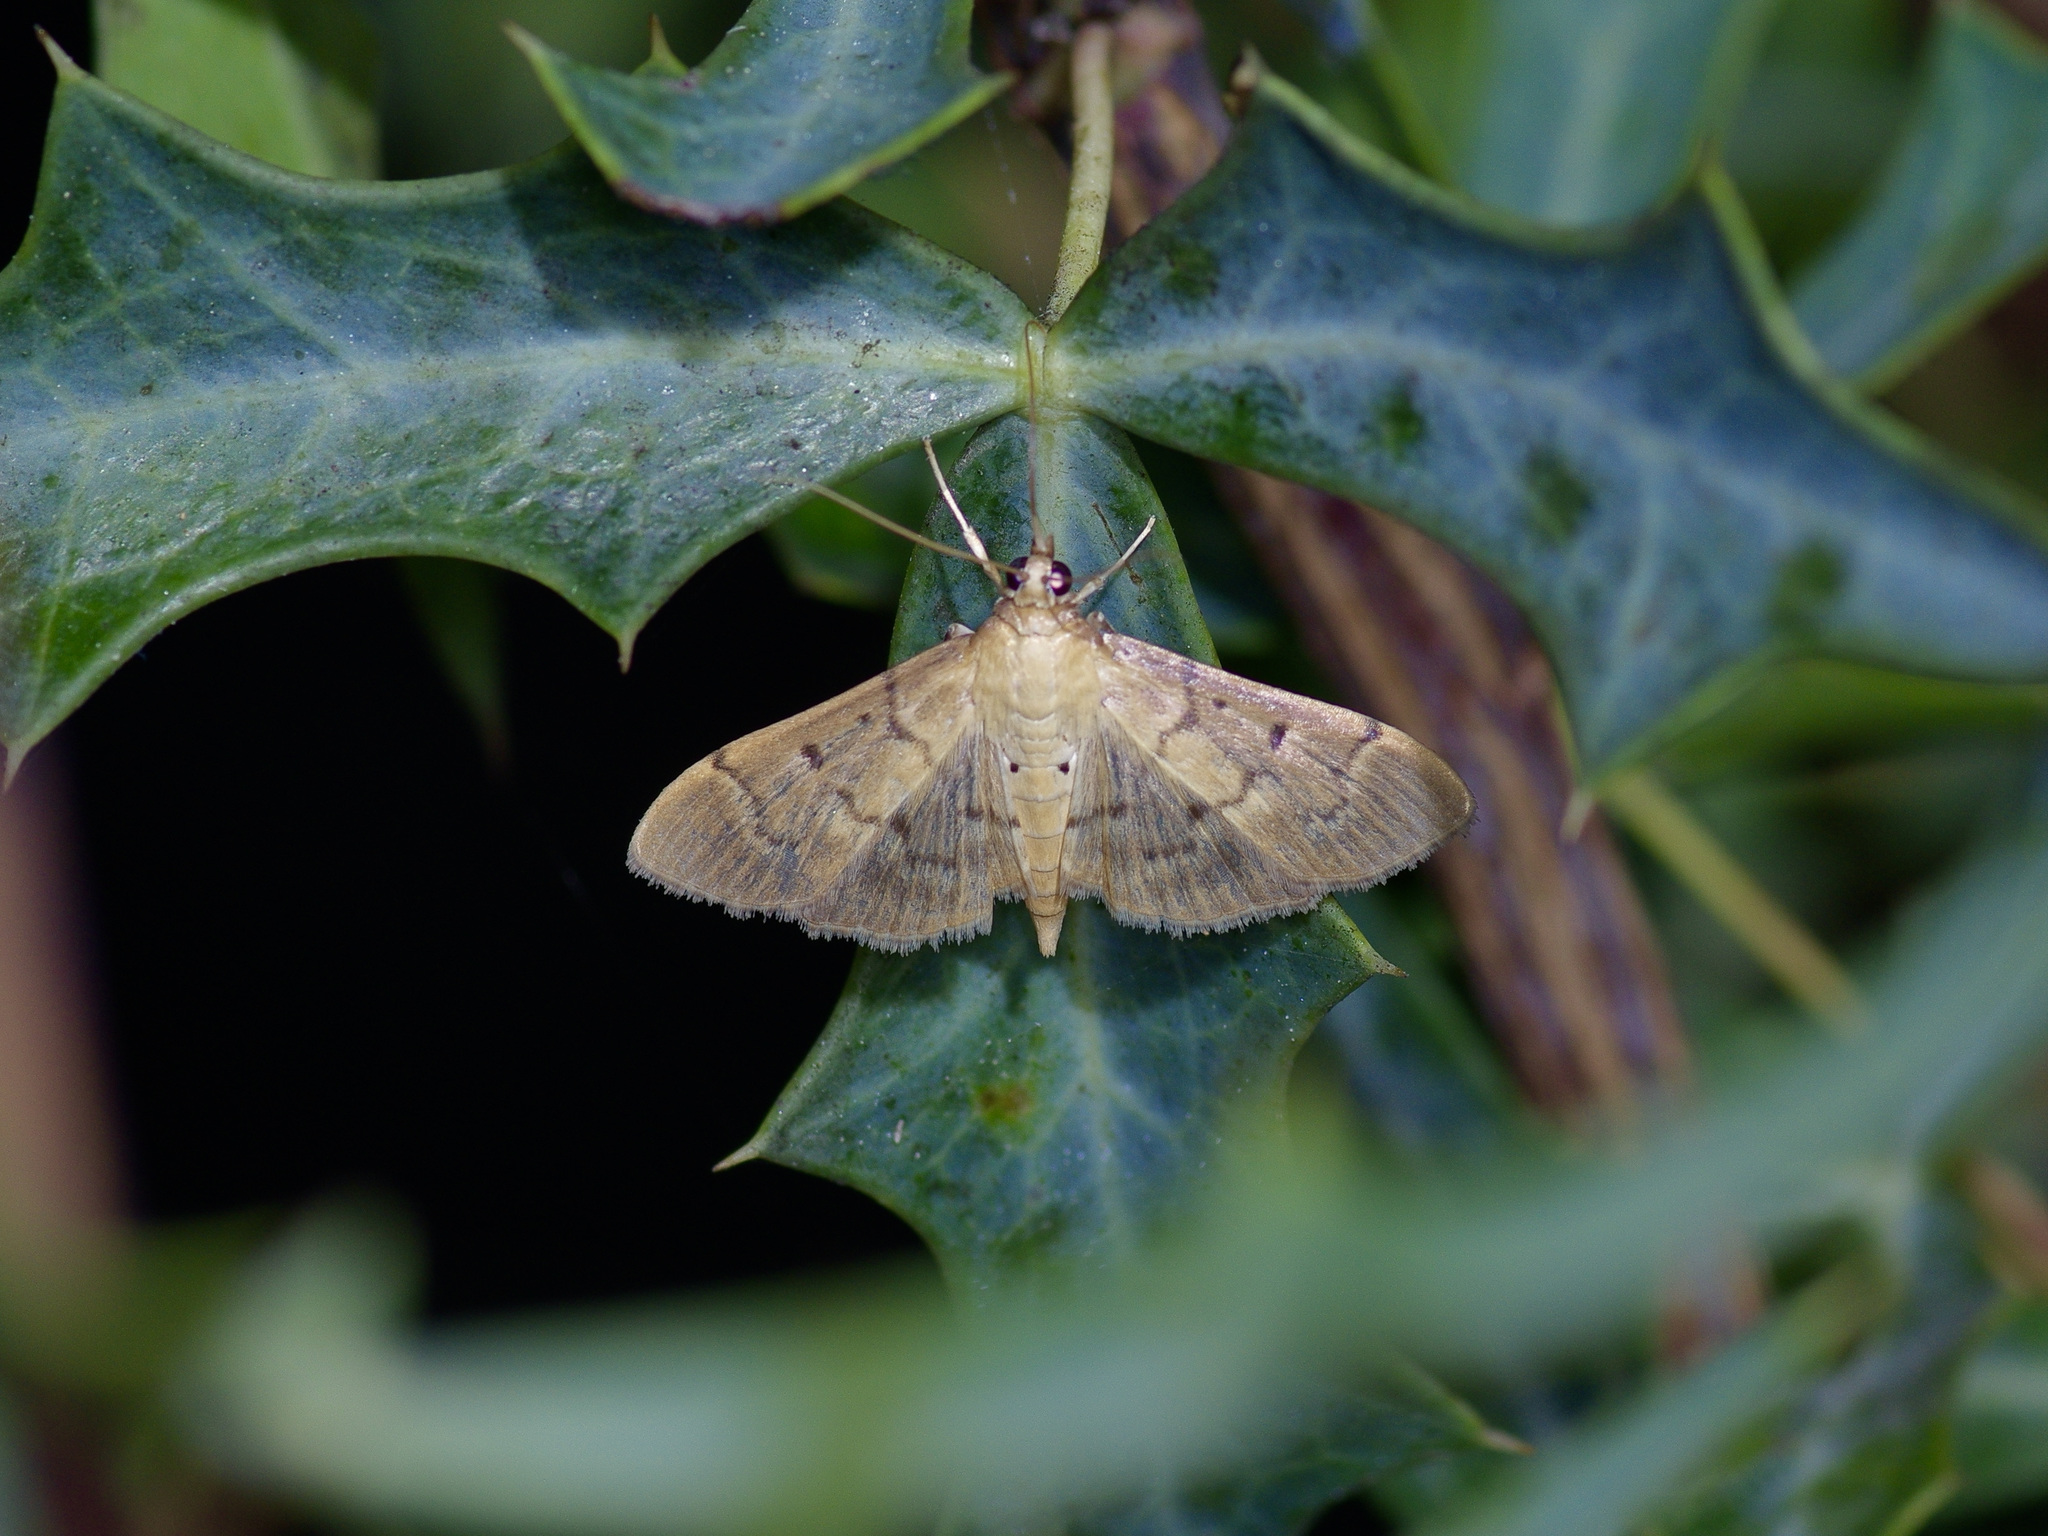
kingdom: Animalia
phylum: Arthropoda
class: Insecta
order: Lepidoptera
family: Crambidae
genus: Herpetogramma
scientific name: Herpetogramma bipunctalis
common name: Southern beet webworm
